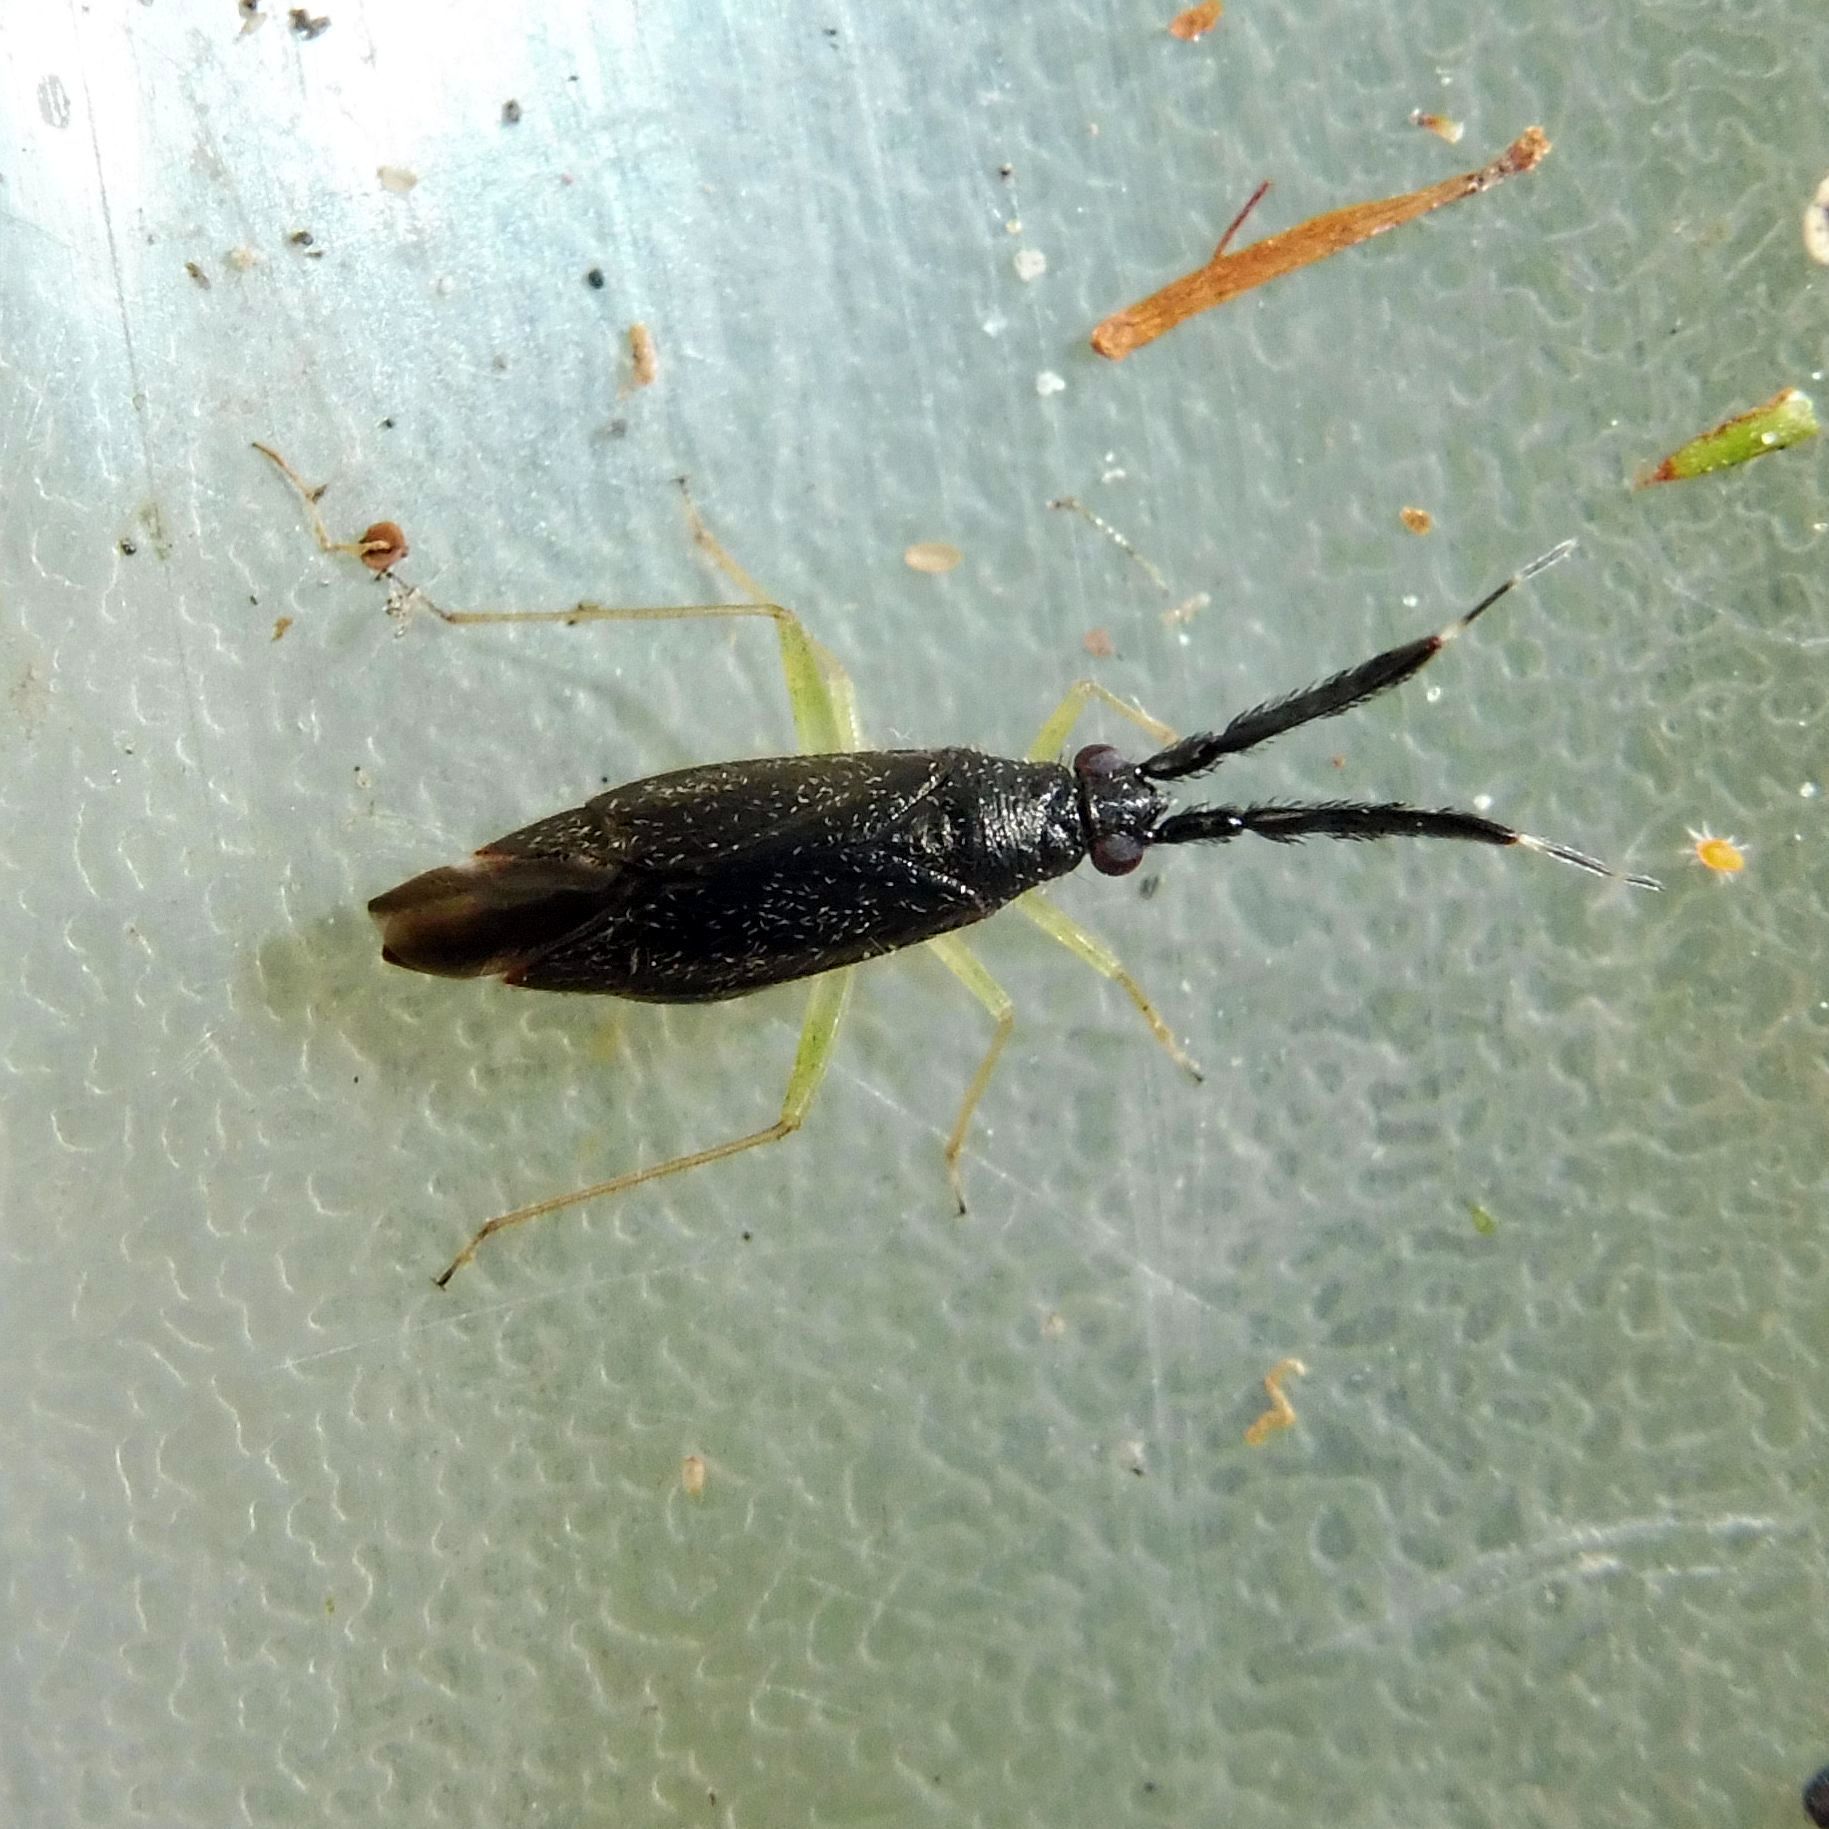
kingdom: Animalia
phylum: Arthropoda
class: Insecta
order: Hemiptera
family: Miridae
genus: Heterotoma
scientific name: Heterotoma planicornis
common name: Plant bug
